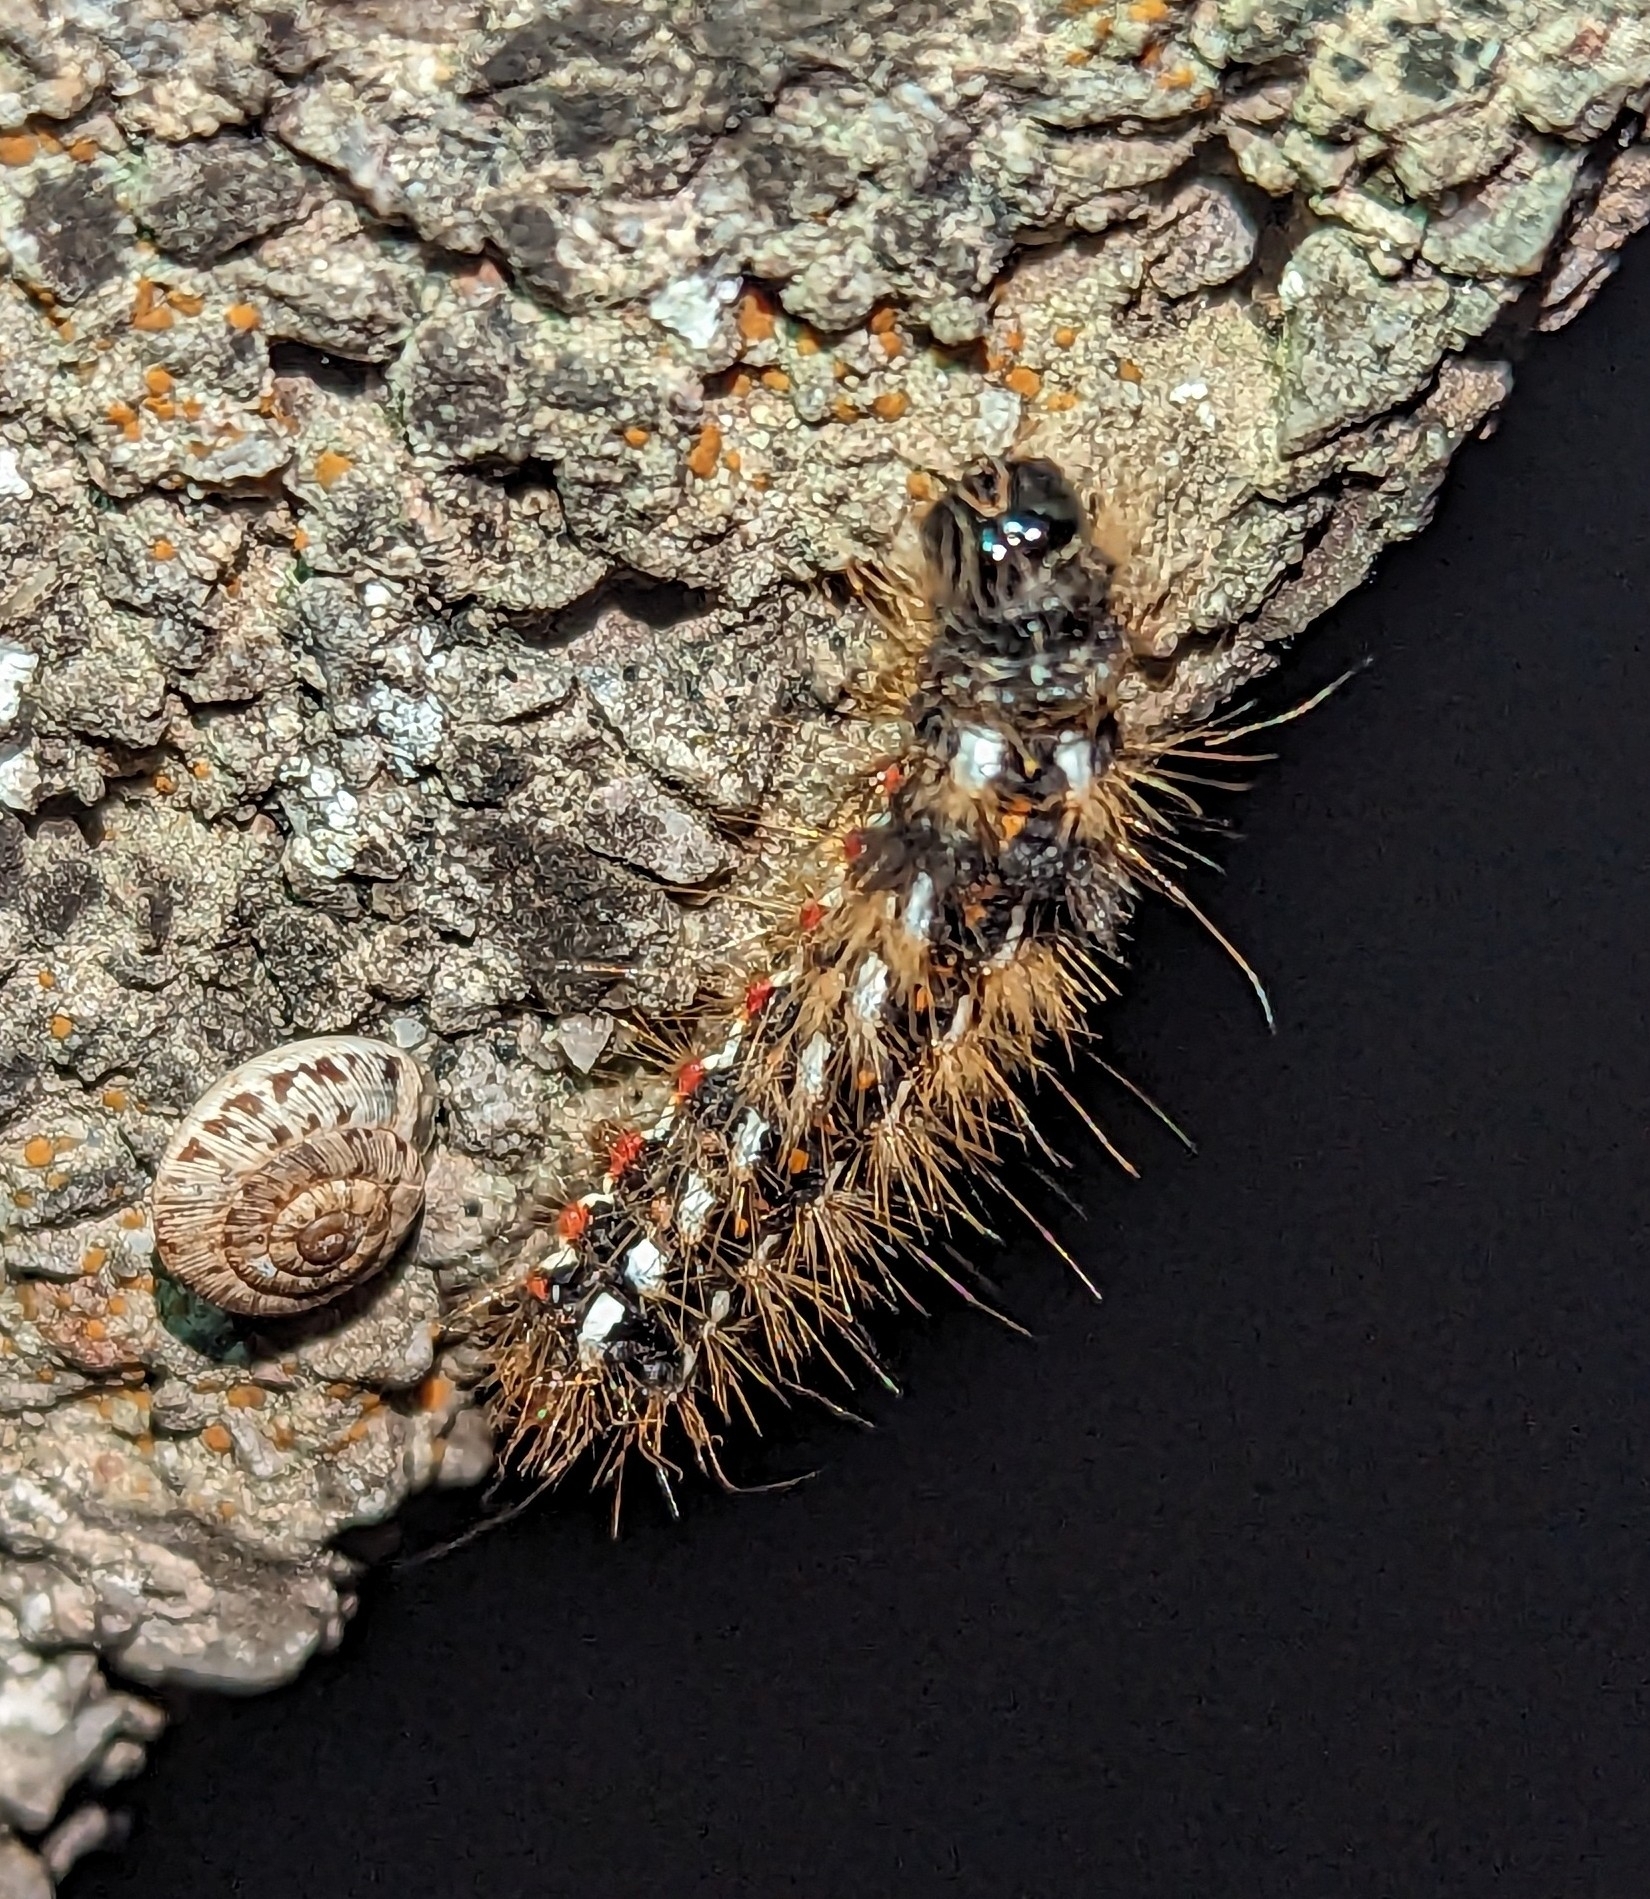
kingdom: Animalia
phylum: Arthropoda
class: Insecta
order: Lepidoptera
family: Noctuidae
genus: Acronicta
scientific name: Acronicta rumicis
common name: Knot grass
